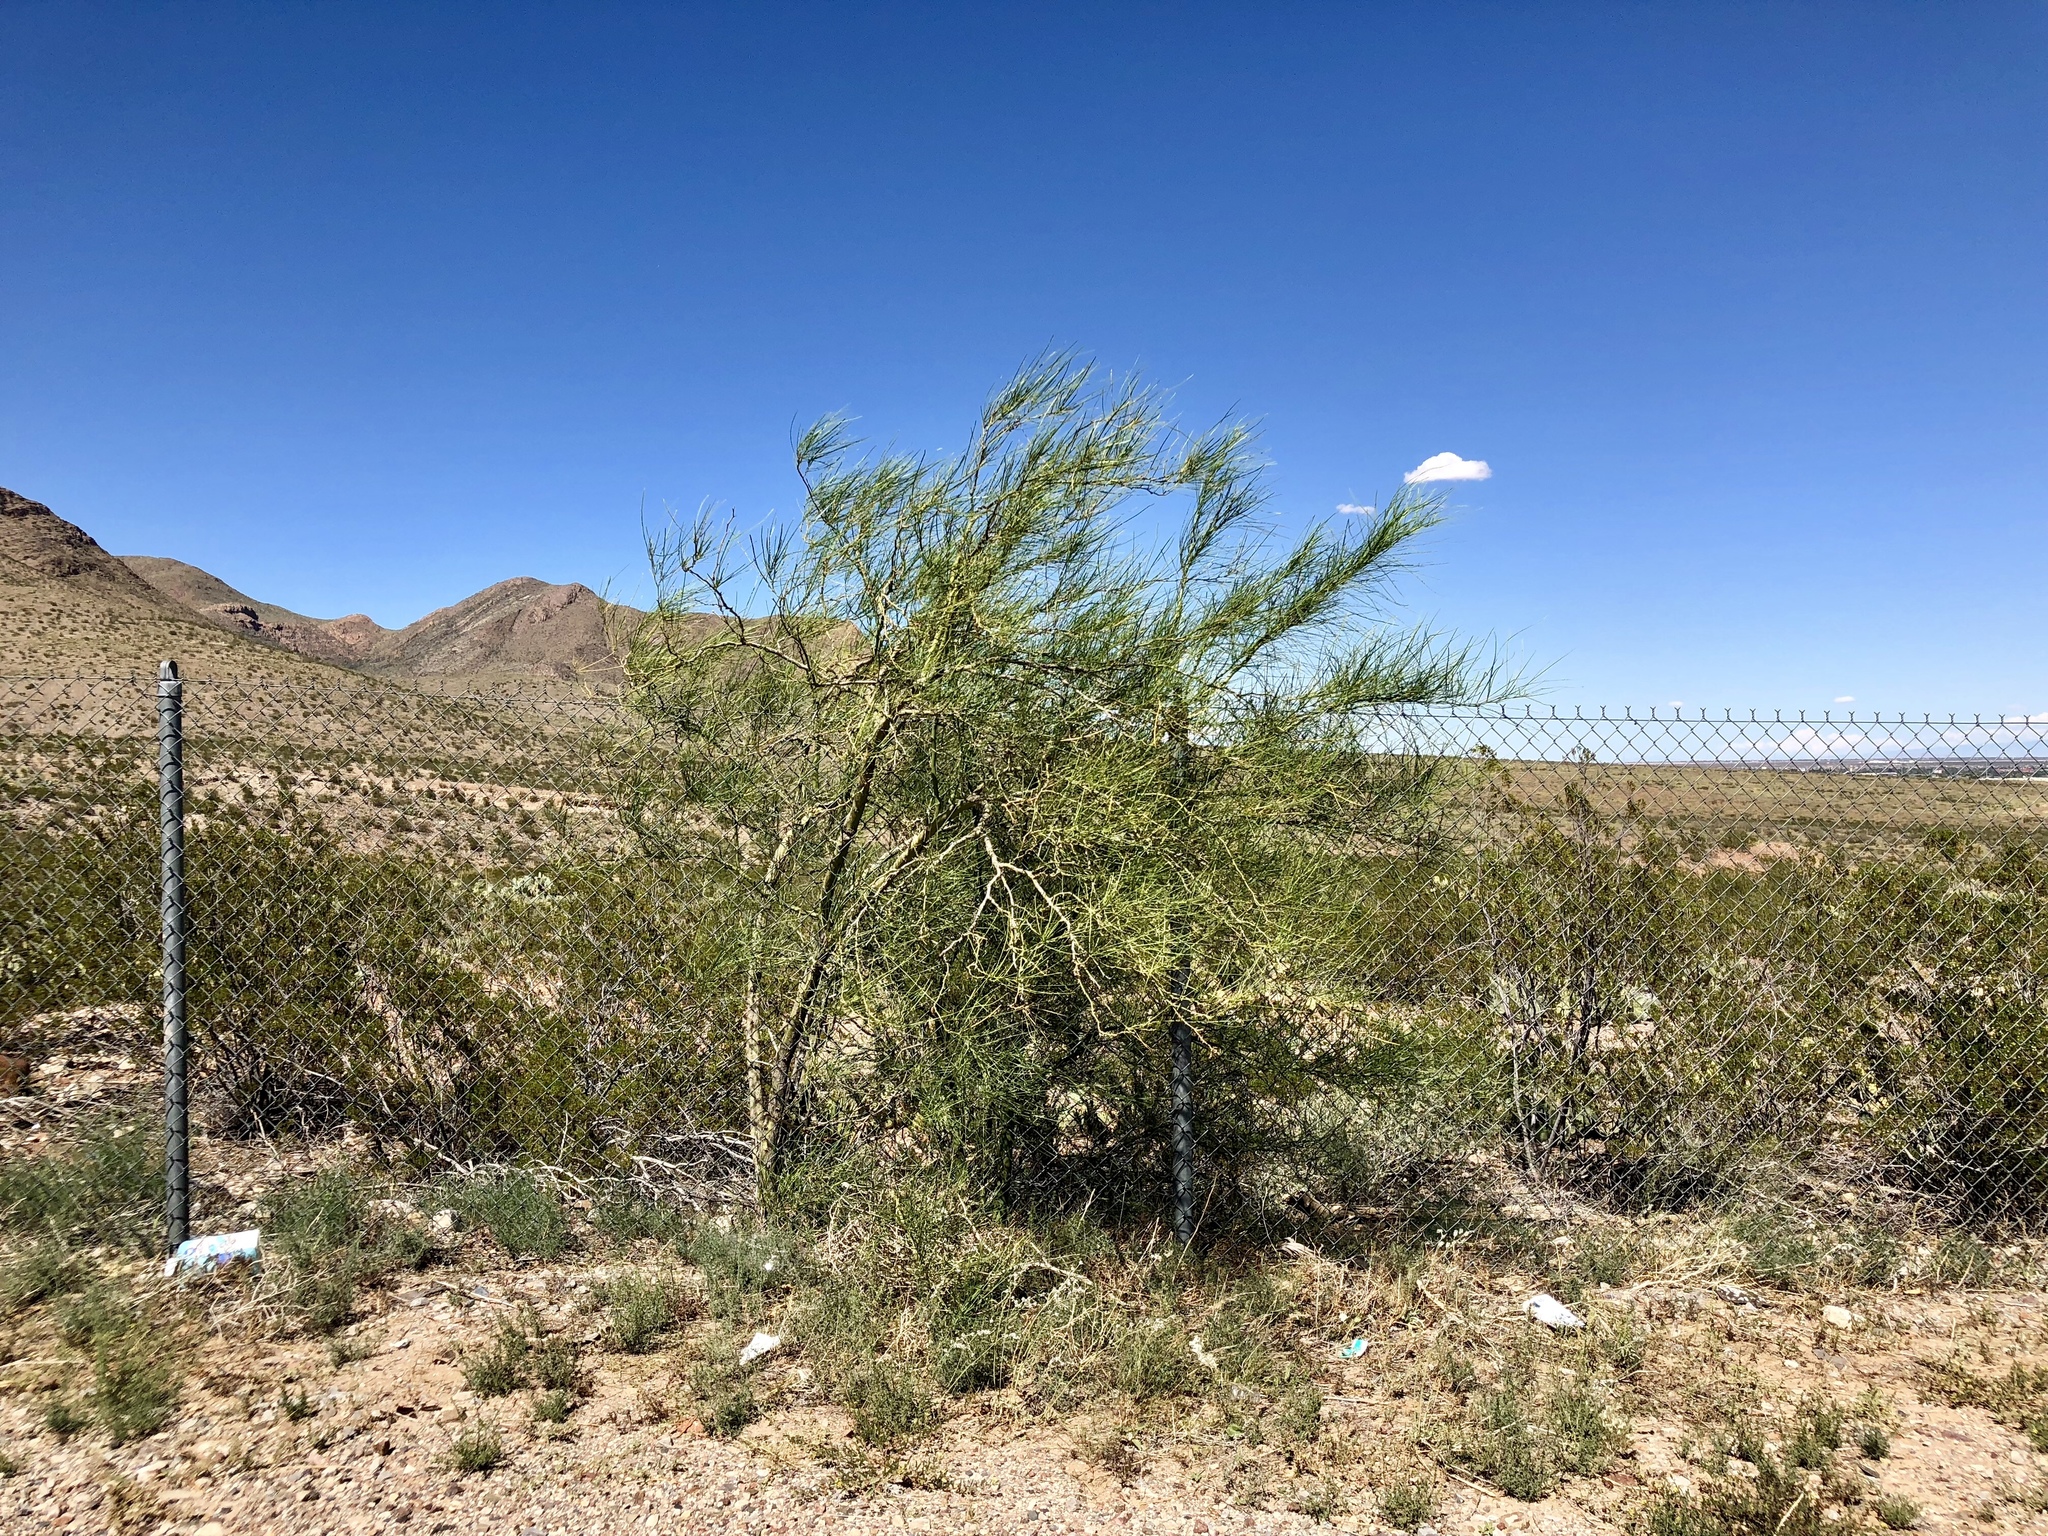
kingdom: Plantae
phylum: Tracheophyta
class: Magnoliopsida
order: Lamiales
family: Bignoniaceae
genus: Chilopsis
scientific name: Chilopsis linearis
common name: Desert-willow
